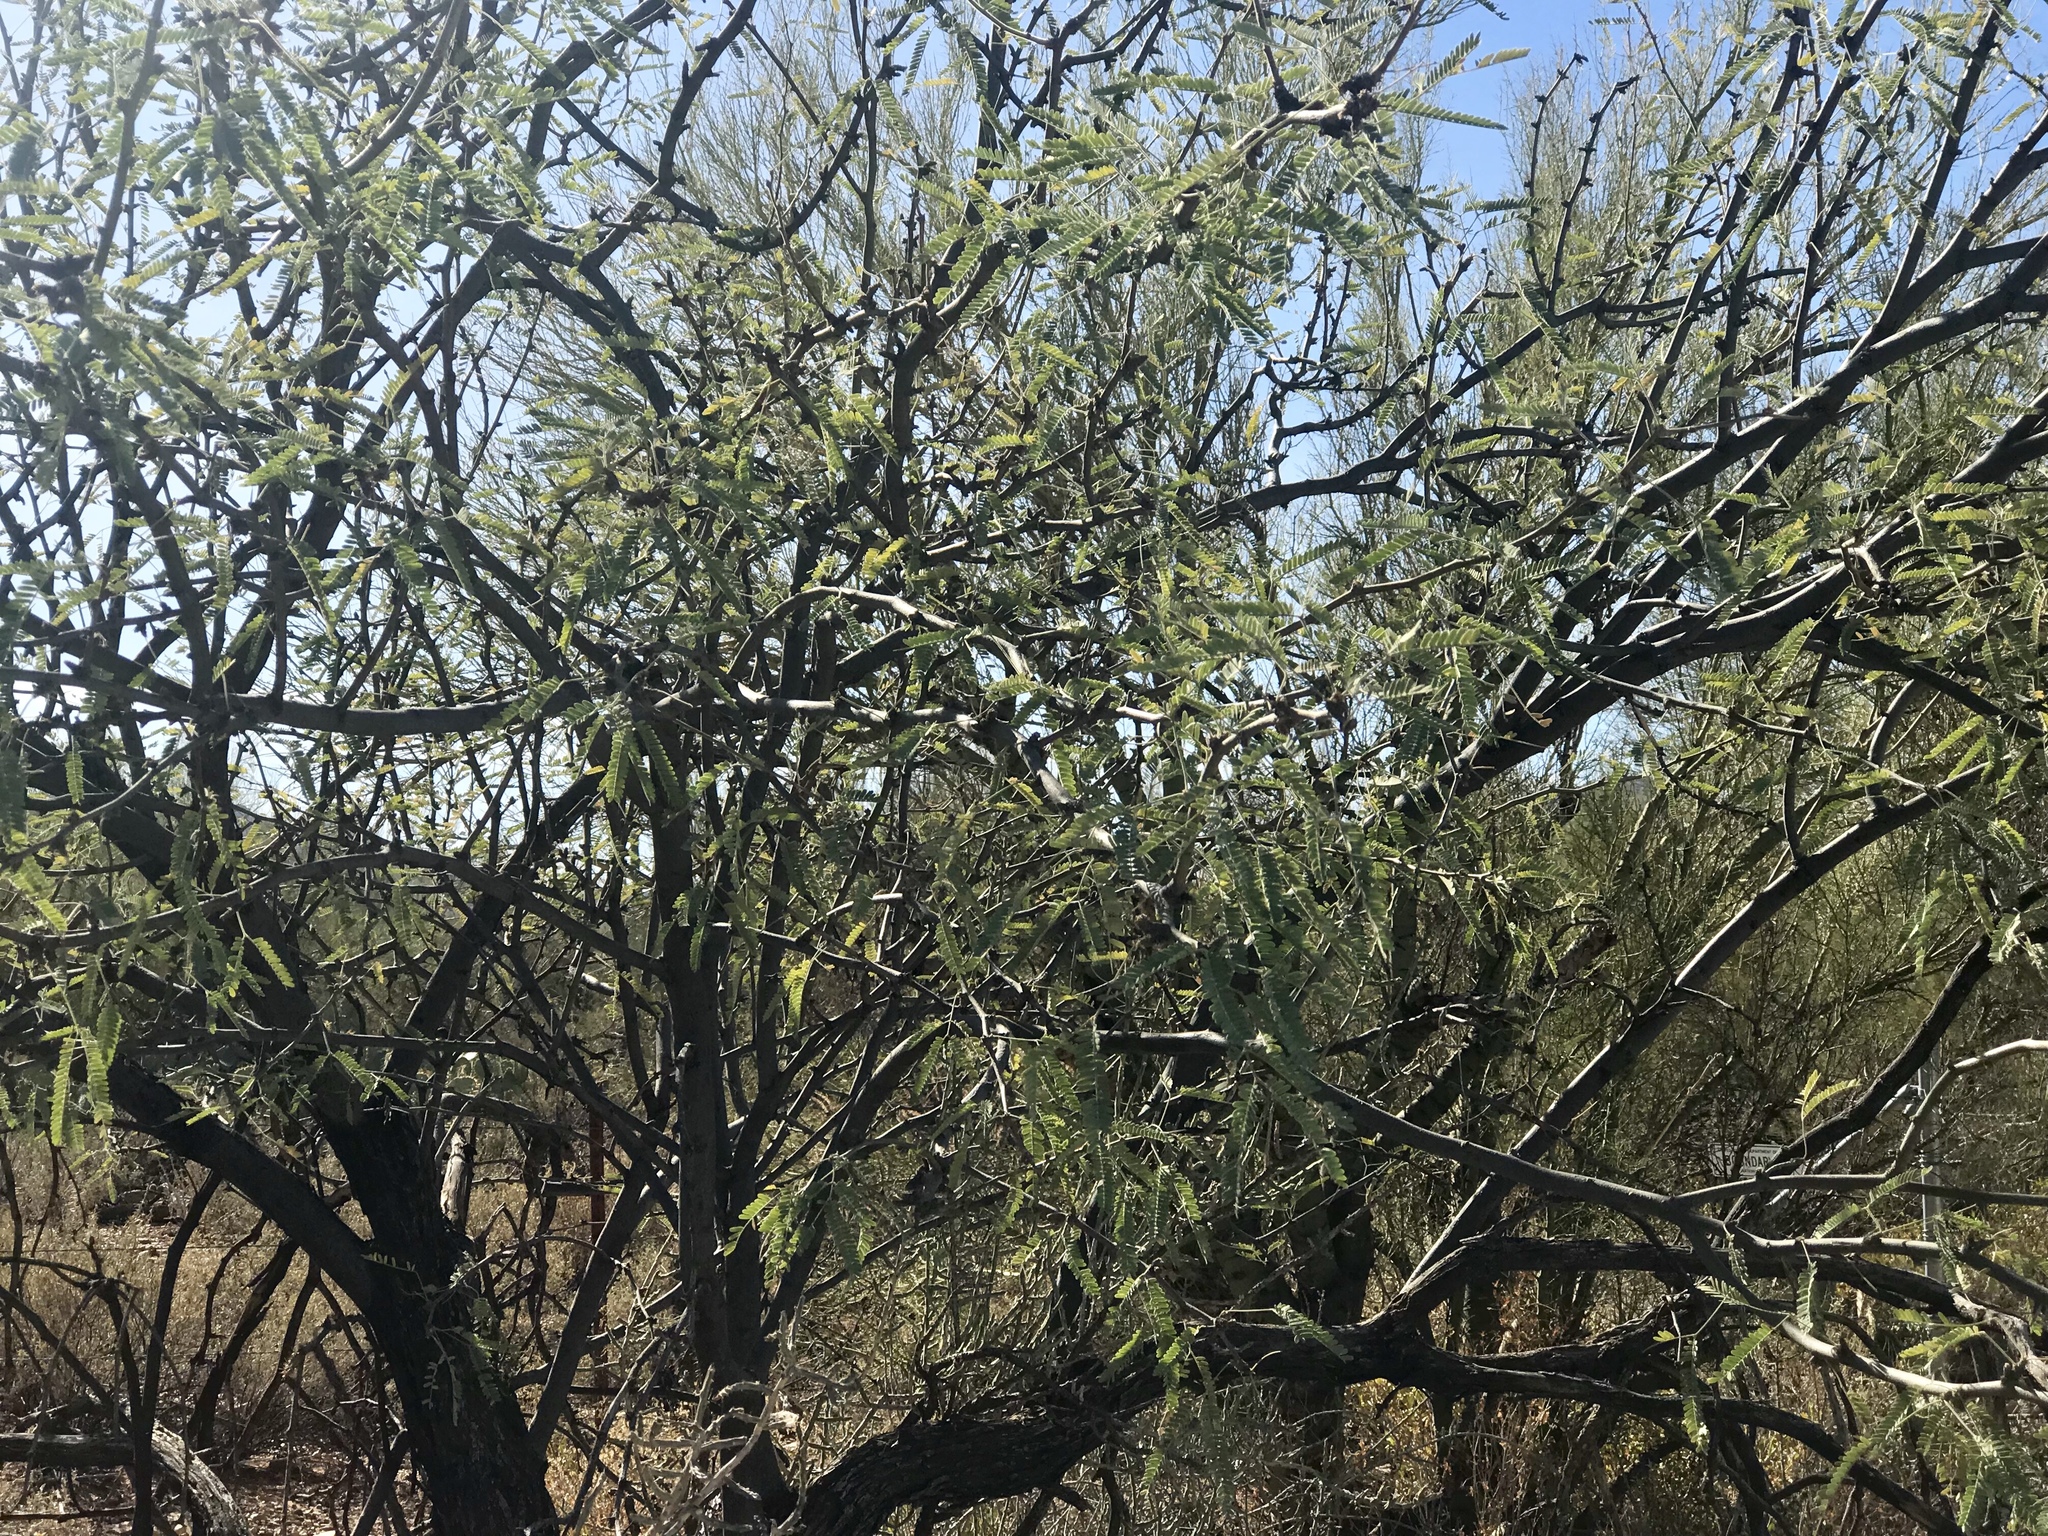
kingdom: Plantae
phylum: Tracheophyta
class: Magnoliopsida
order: Fabales
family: Fabaceae
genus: Prosopis
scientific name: Prosopis velutina
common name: Velvet mesquite
